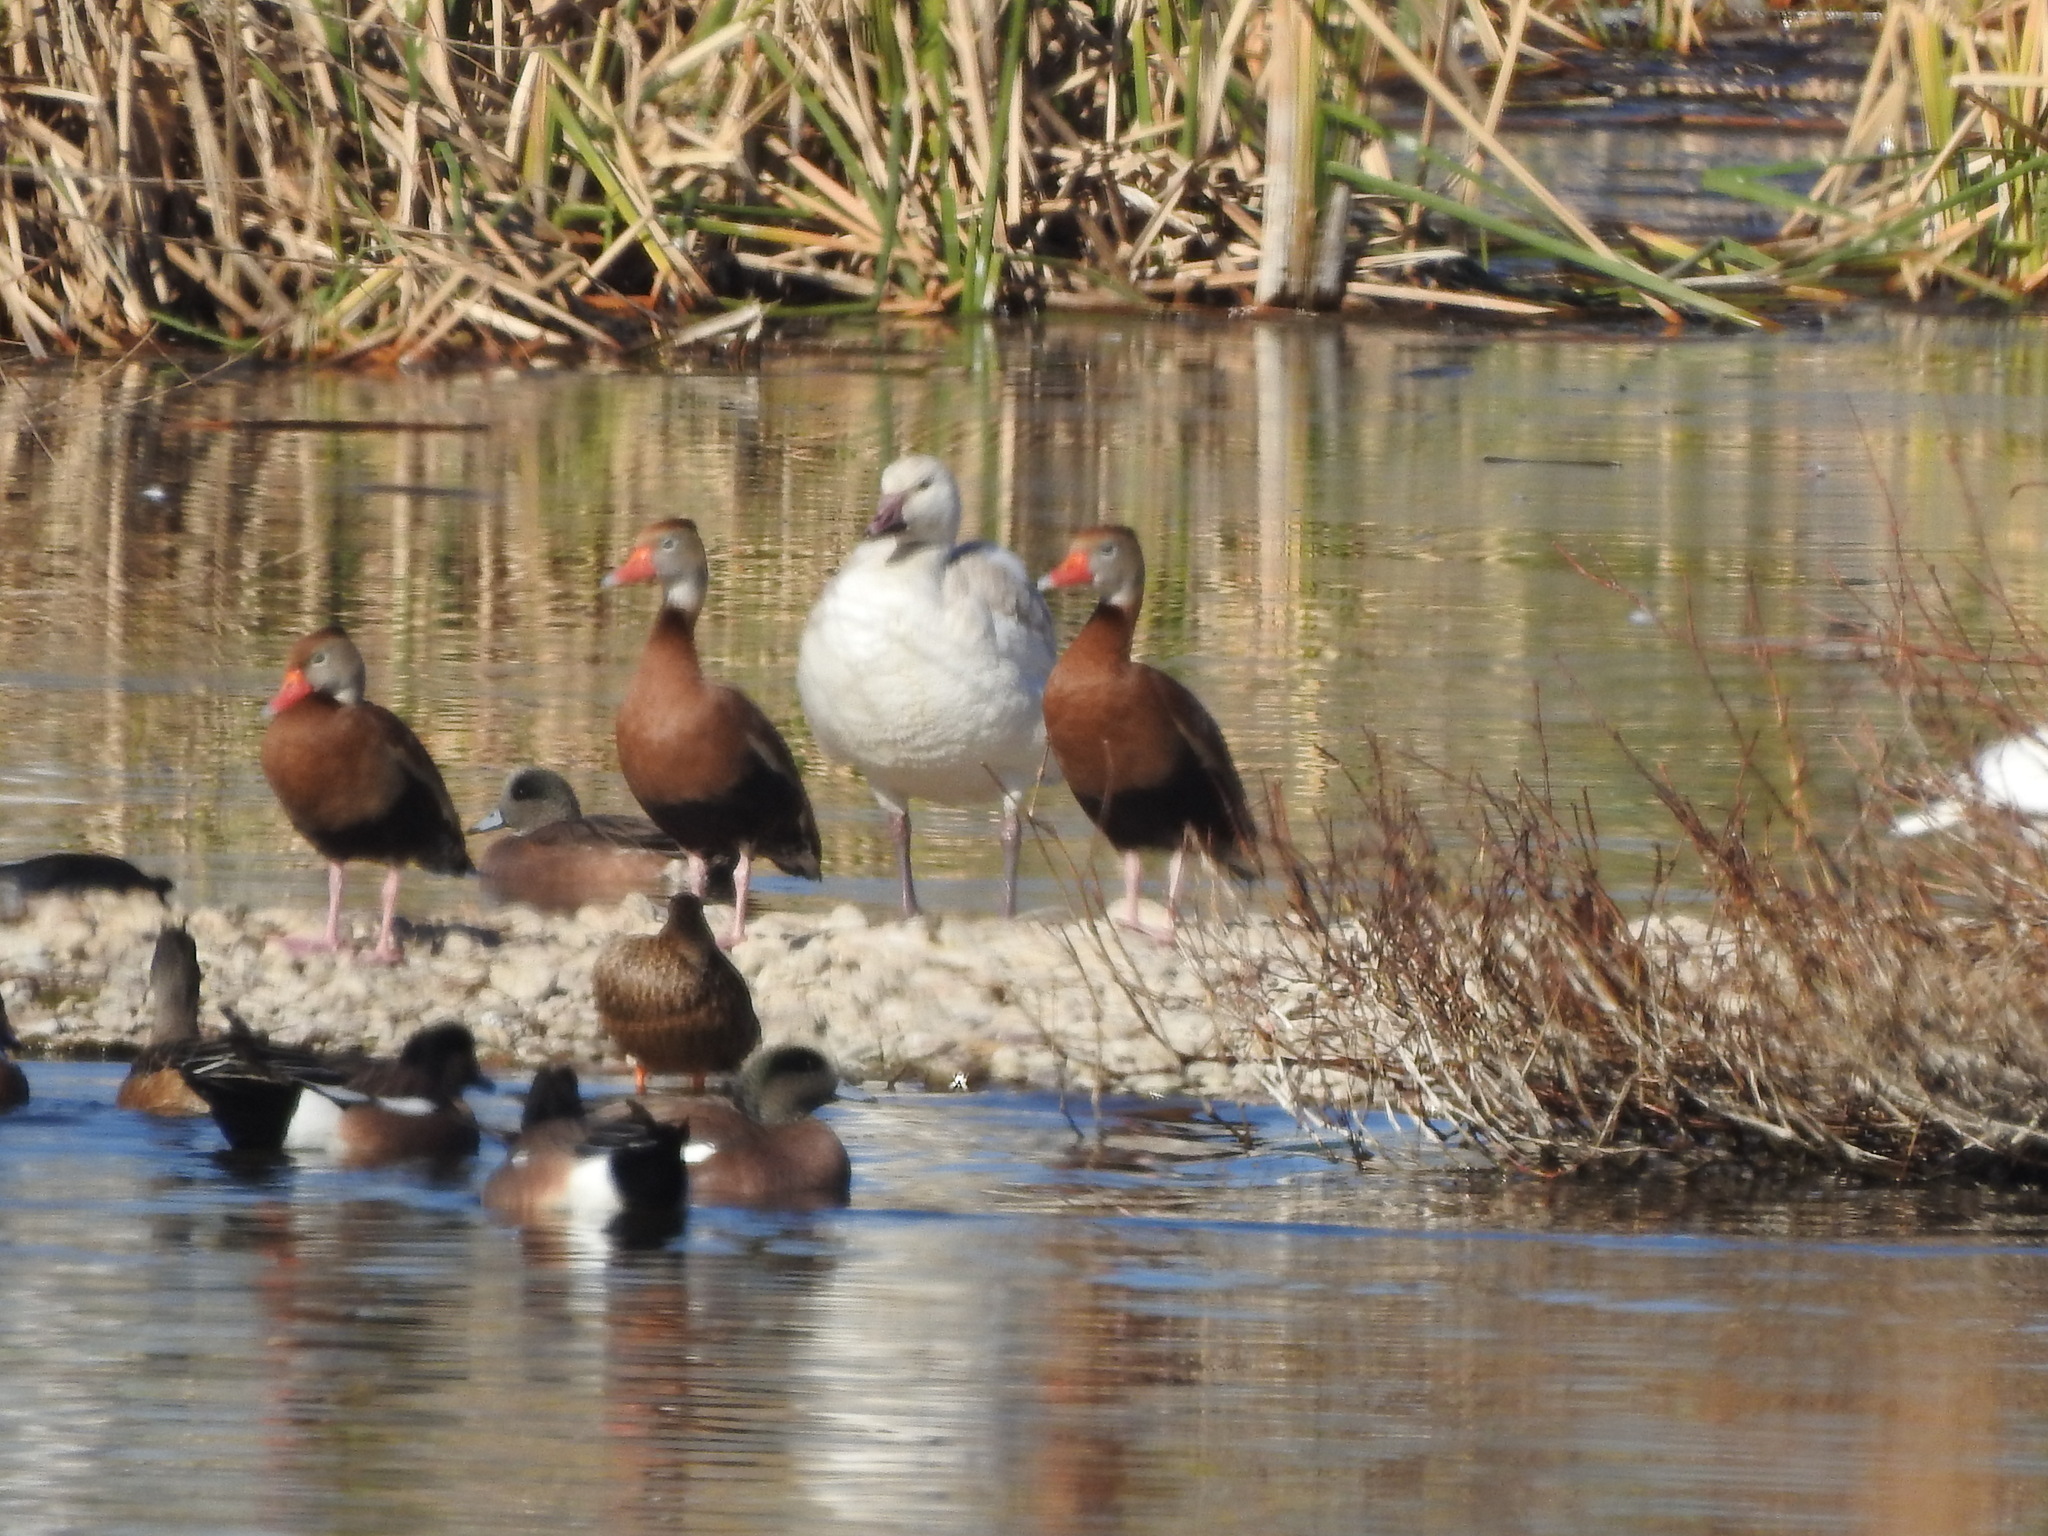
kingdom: Animalia
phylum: Chordata
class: Aves
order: Anseriformes
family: Anatidae
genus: Dendrocygna
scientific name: Dendrocygna autumnalis
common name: Black-bellied whistling duck
